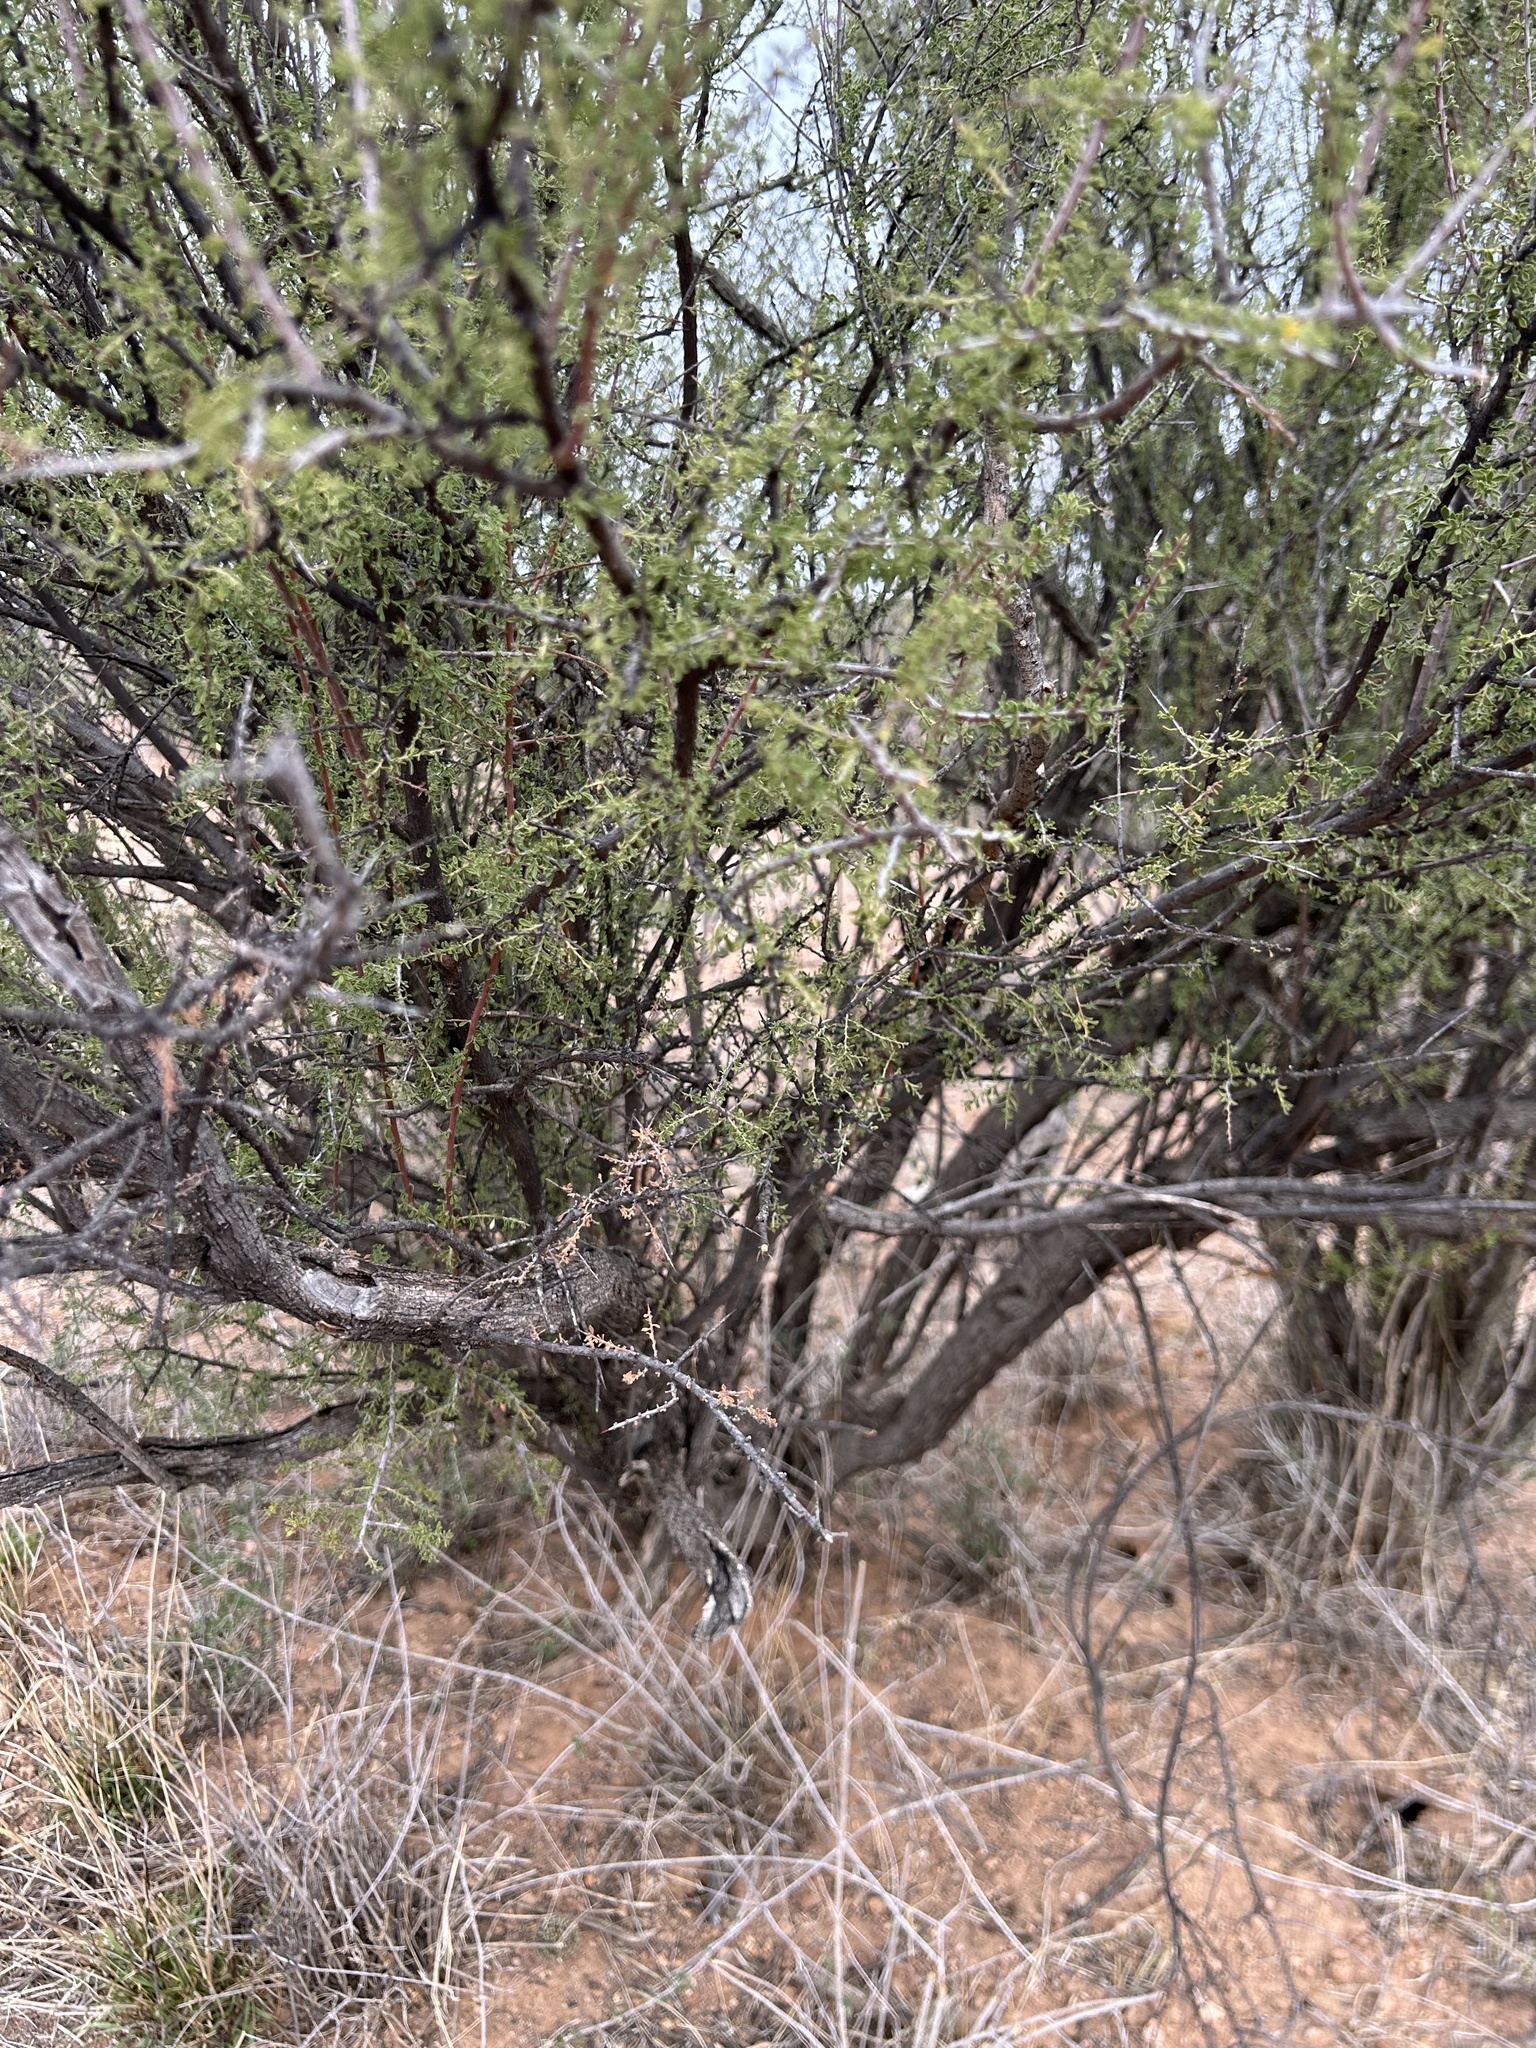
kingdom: Plantae
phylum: Tracheophyta
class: Magnoliopsida
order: Rosales
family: Rhamnaceae
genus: Condalia
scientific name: Condalia globosa
